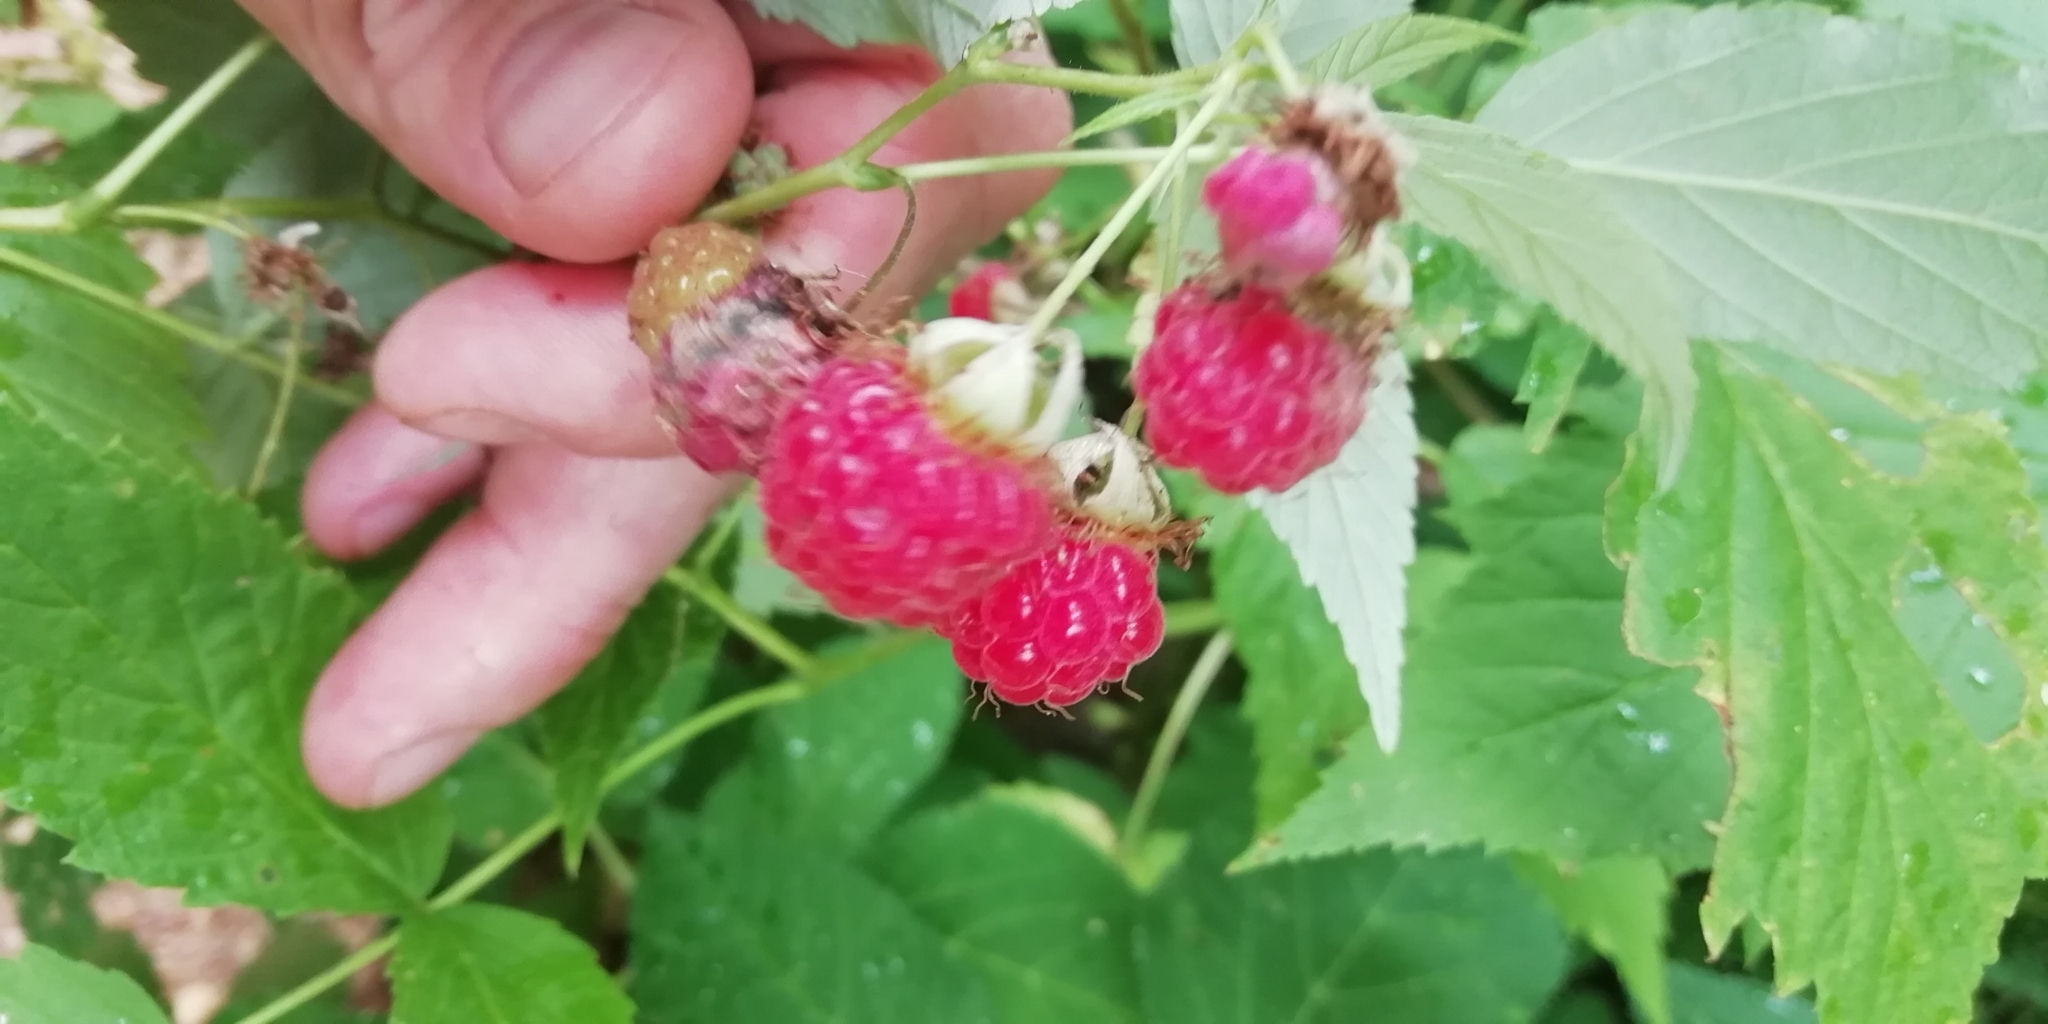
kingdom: Plantae
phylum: Tracheophyta
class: Magnoliopsida
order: Rosales
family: Rosaceae
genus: Rubus
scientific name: Rubus idaeus
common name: Raspberry
